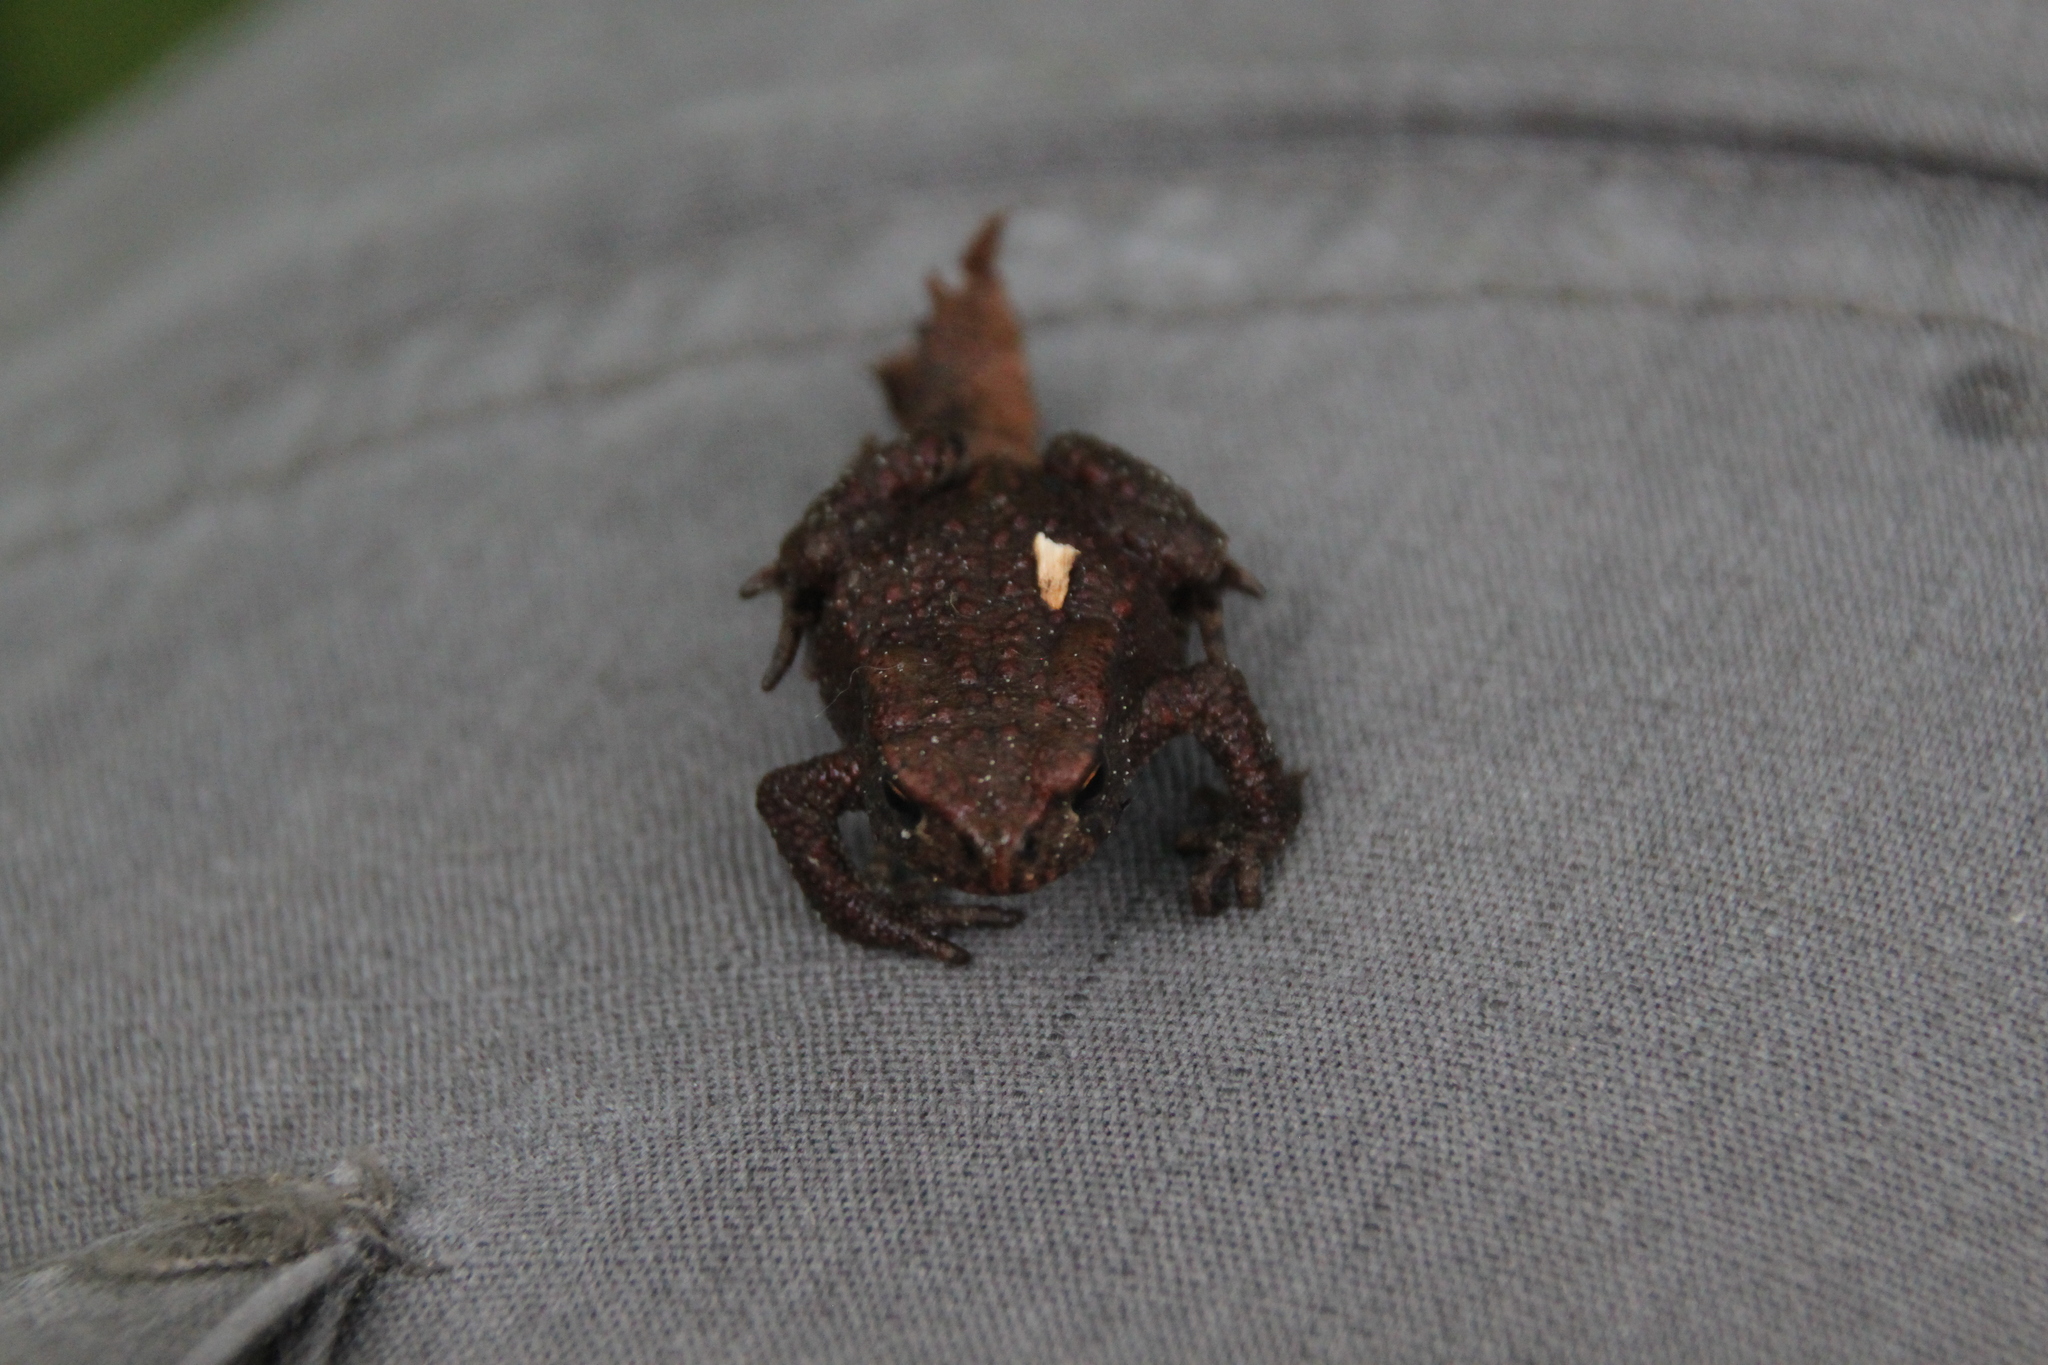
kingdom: Animalia
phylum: Chordata
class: Amphibia
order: Anura
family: Bufonidae
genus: Bufo
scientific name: Bufo bufo
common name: Common toad
